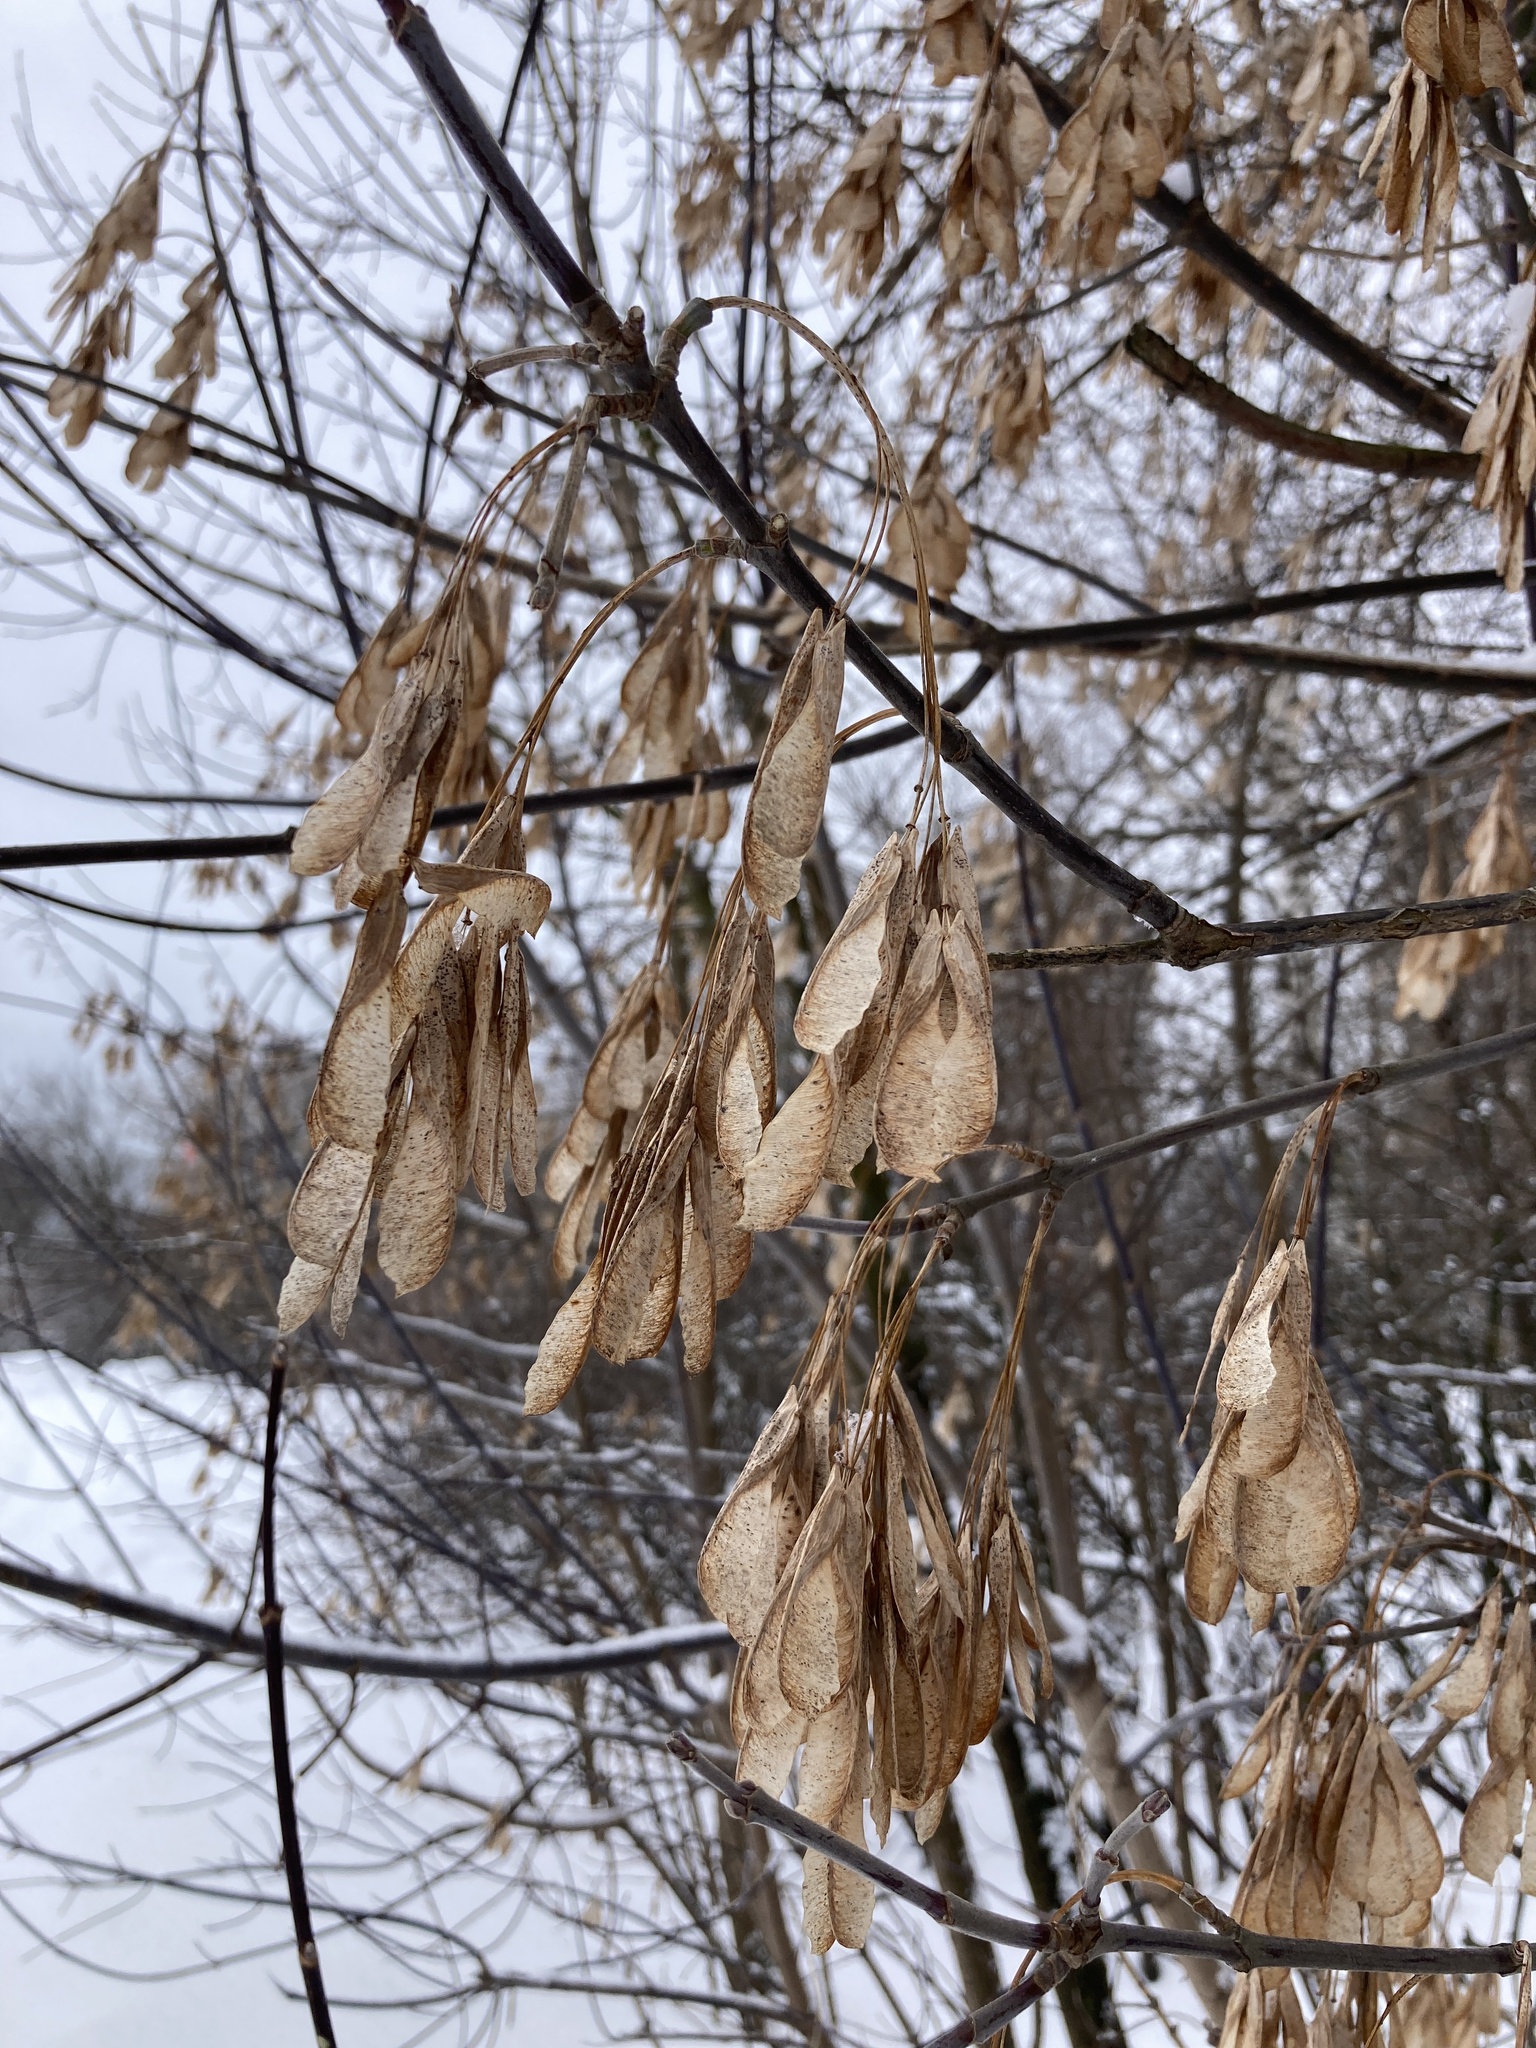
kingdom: Plantae
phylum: Tracheophyta
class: Magnoliopsida
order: Sapindales
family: Sapindaceae
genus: Acer
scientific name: Acer negundo
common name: Ashleaf maple
